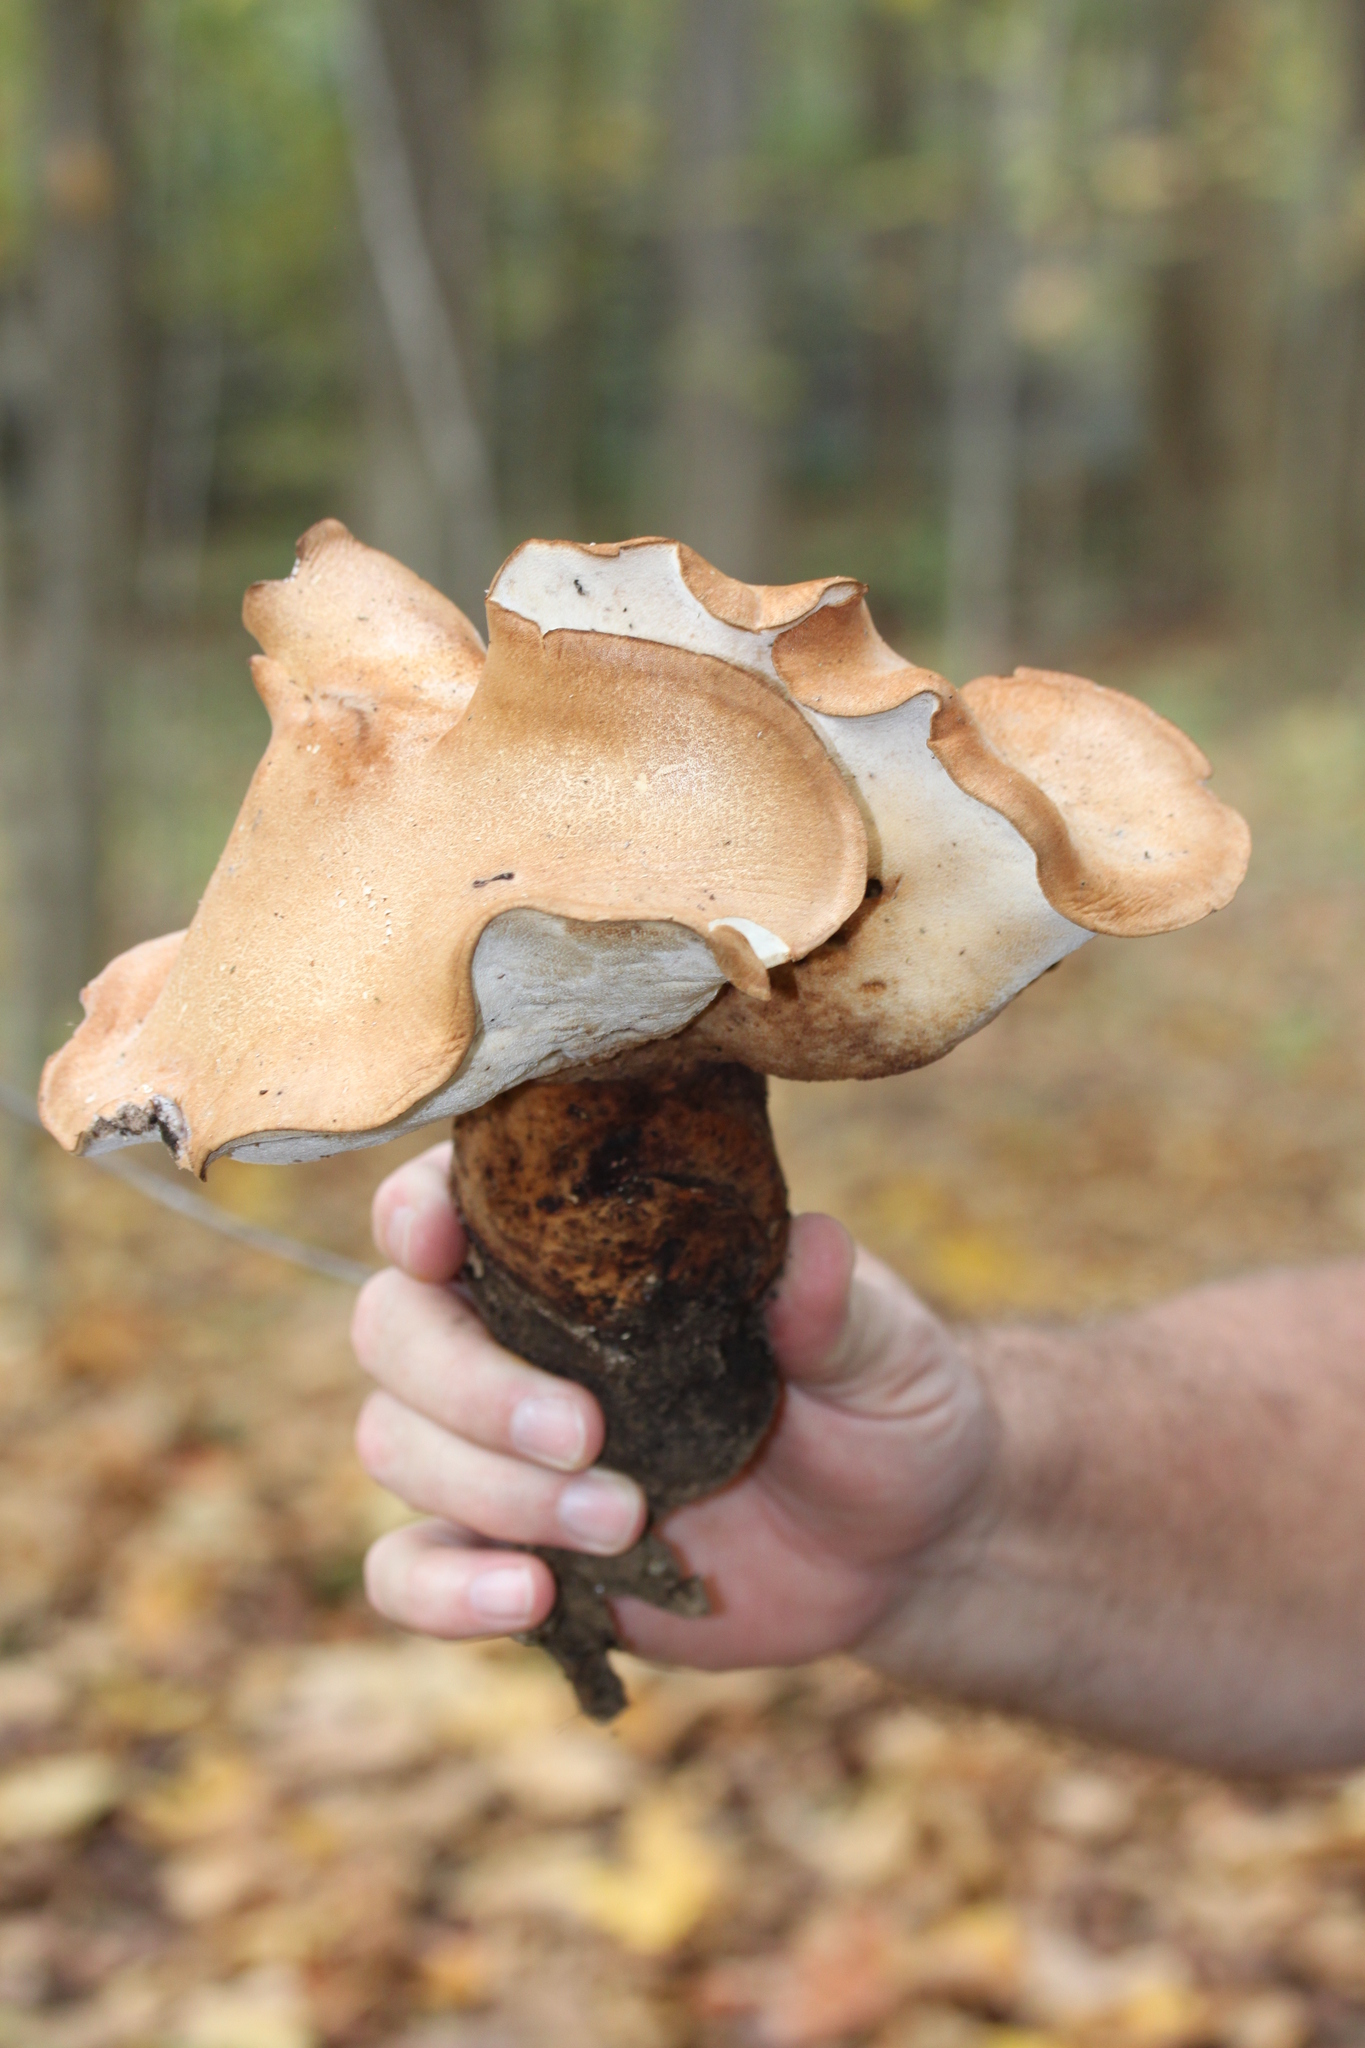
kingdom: Fungi
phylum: Basidiomycota
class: Agaricomycetes
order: Polyporales
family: Polyporaceae
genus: Polyporus
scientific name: Polyporus radicatus
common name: Rooting polypore
